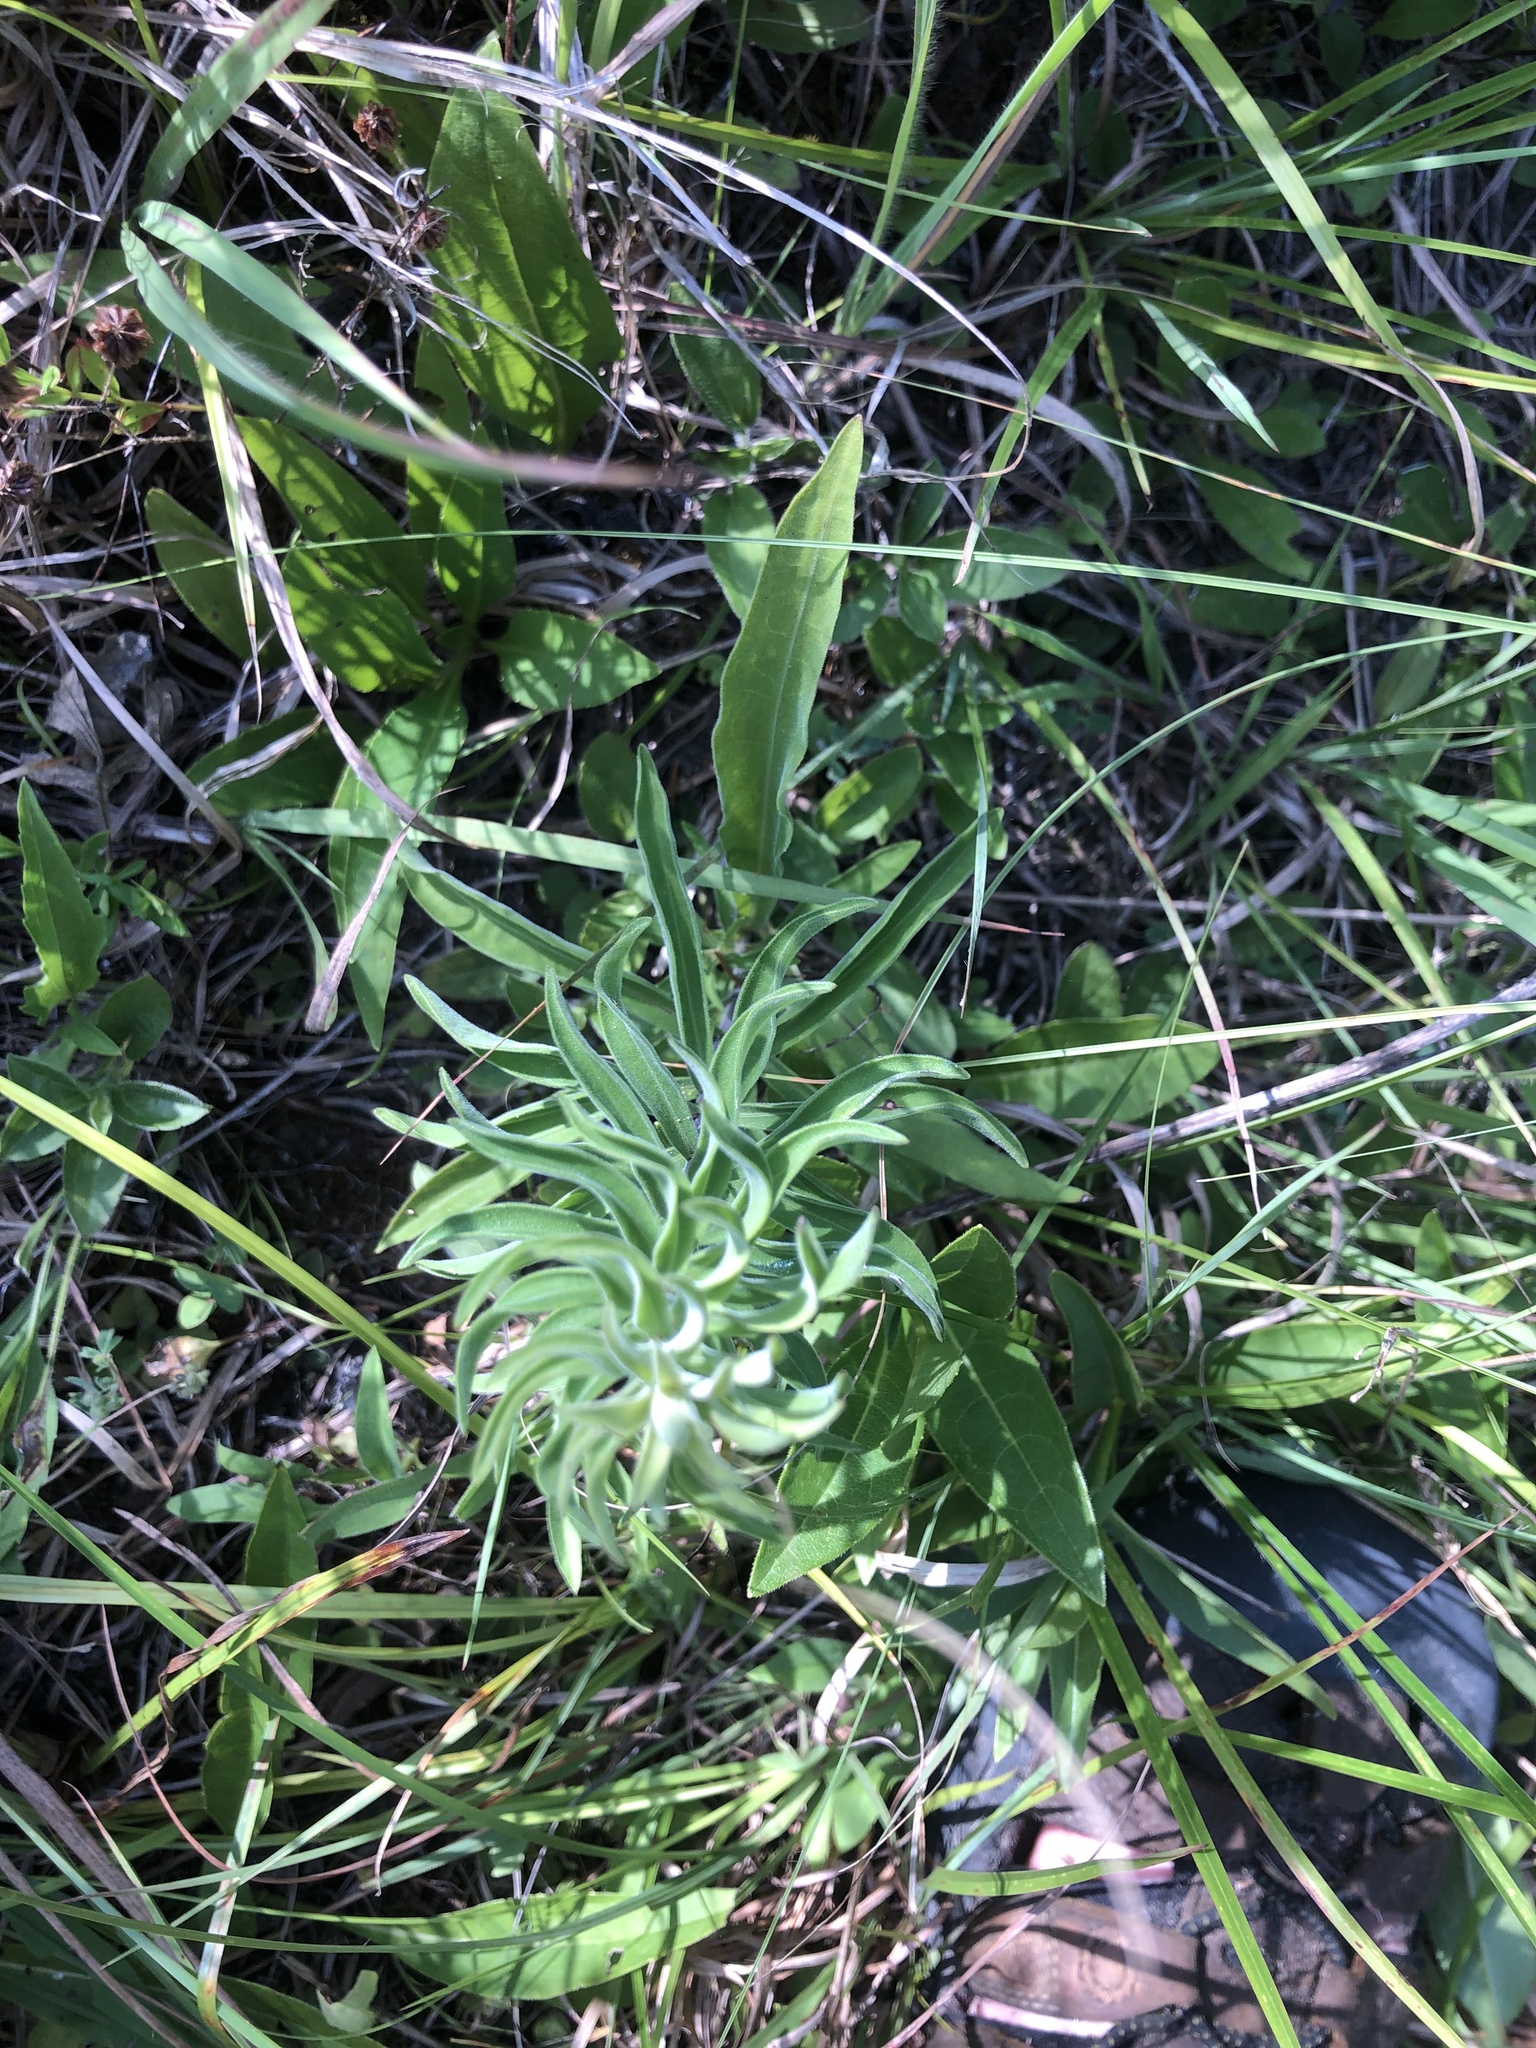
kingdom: Plantae
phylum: Tracheophyta
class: Magnoliopsida
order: Asterales
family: Asteraceae
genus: Liatris
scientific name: Liatris squarrulosa
